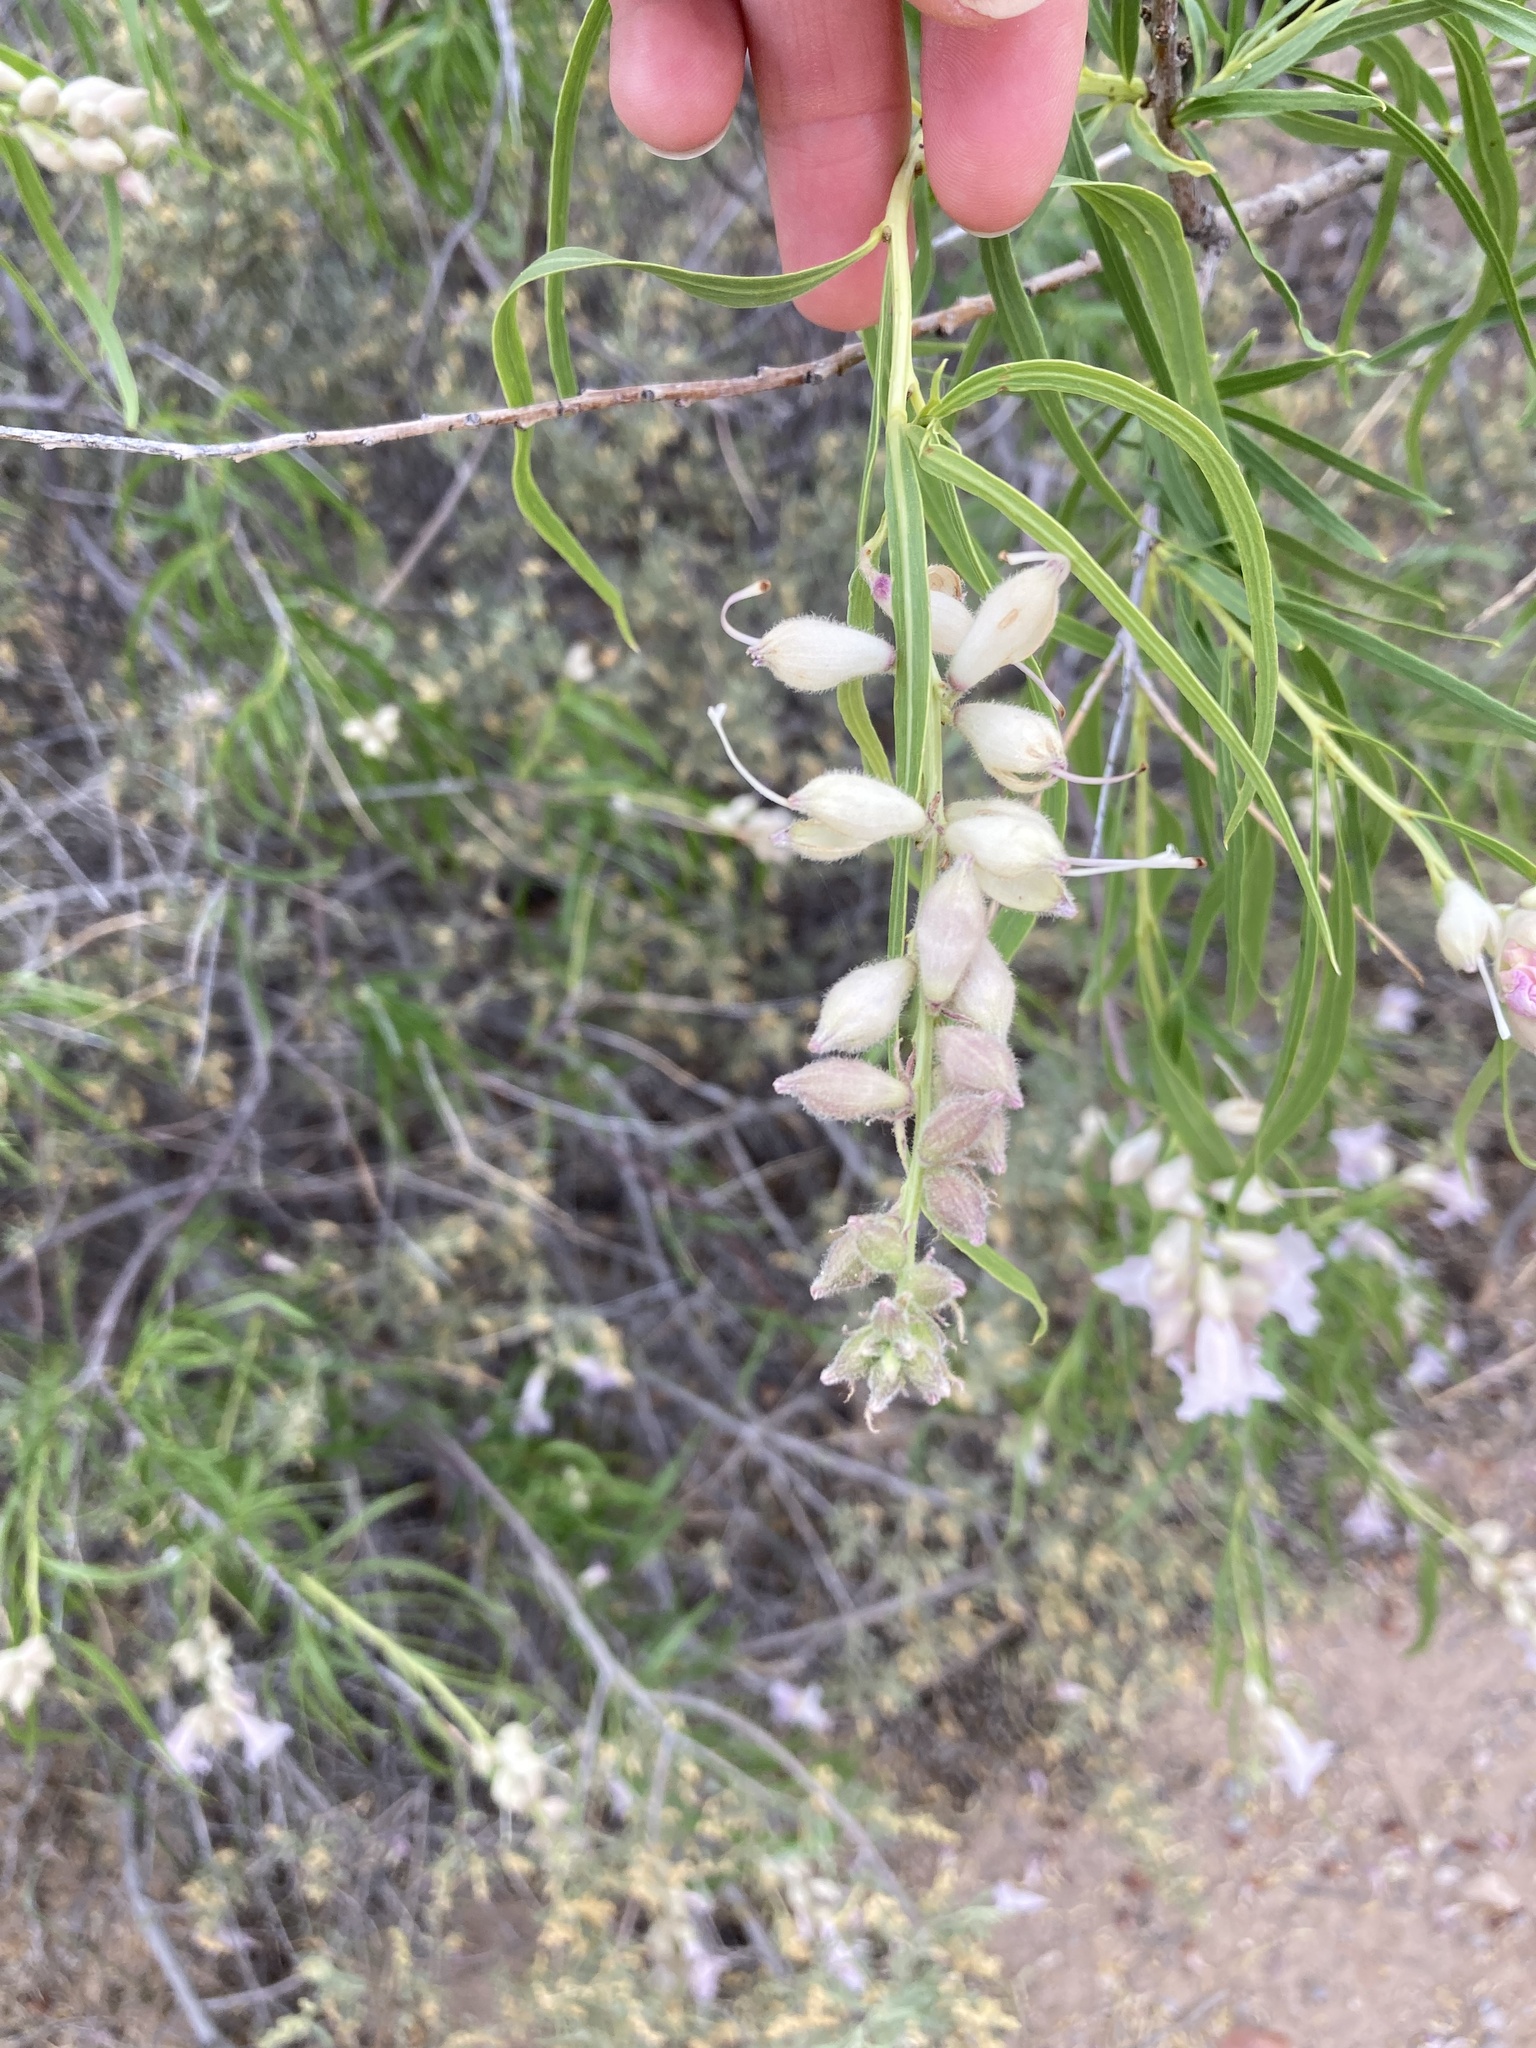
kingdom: Plantae
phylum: Tracheophyta
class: Magnoliopsida
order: Lamiales
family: Bignoniaceae
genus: Chilopsis
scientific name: Chilopsis linearis
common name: Desert-willow
